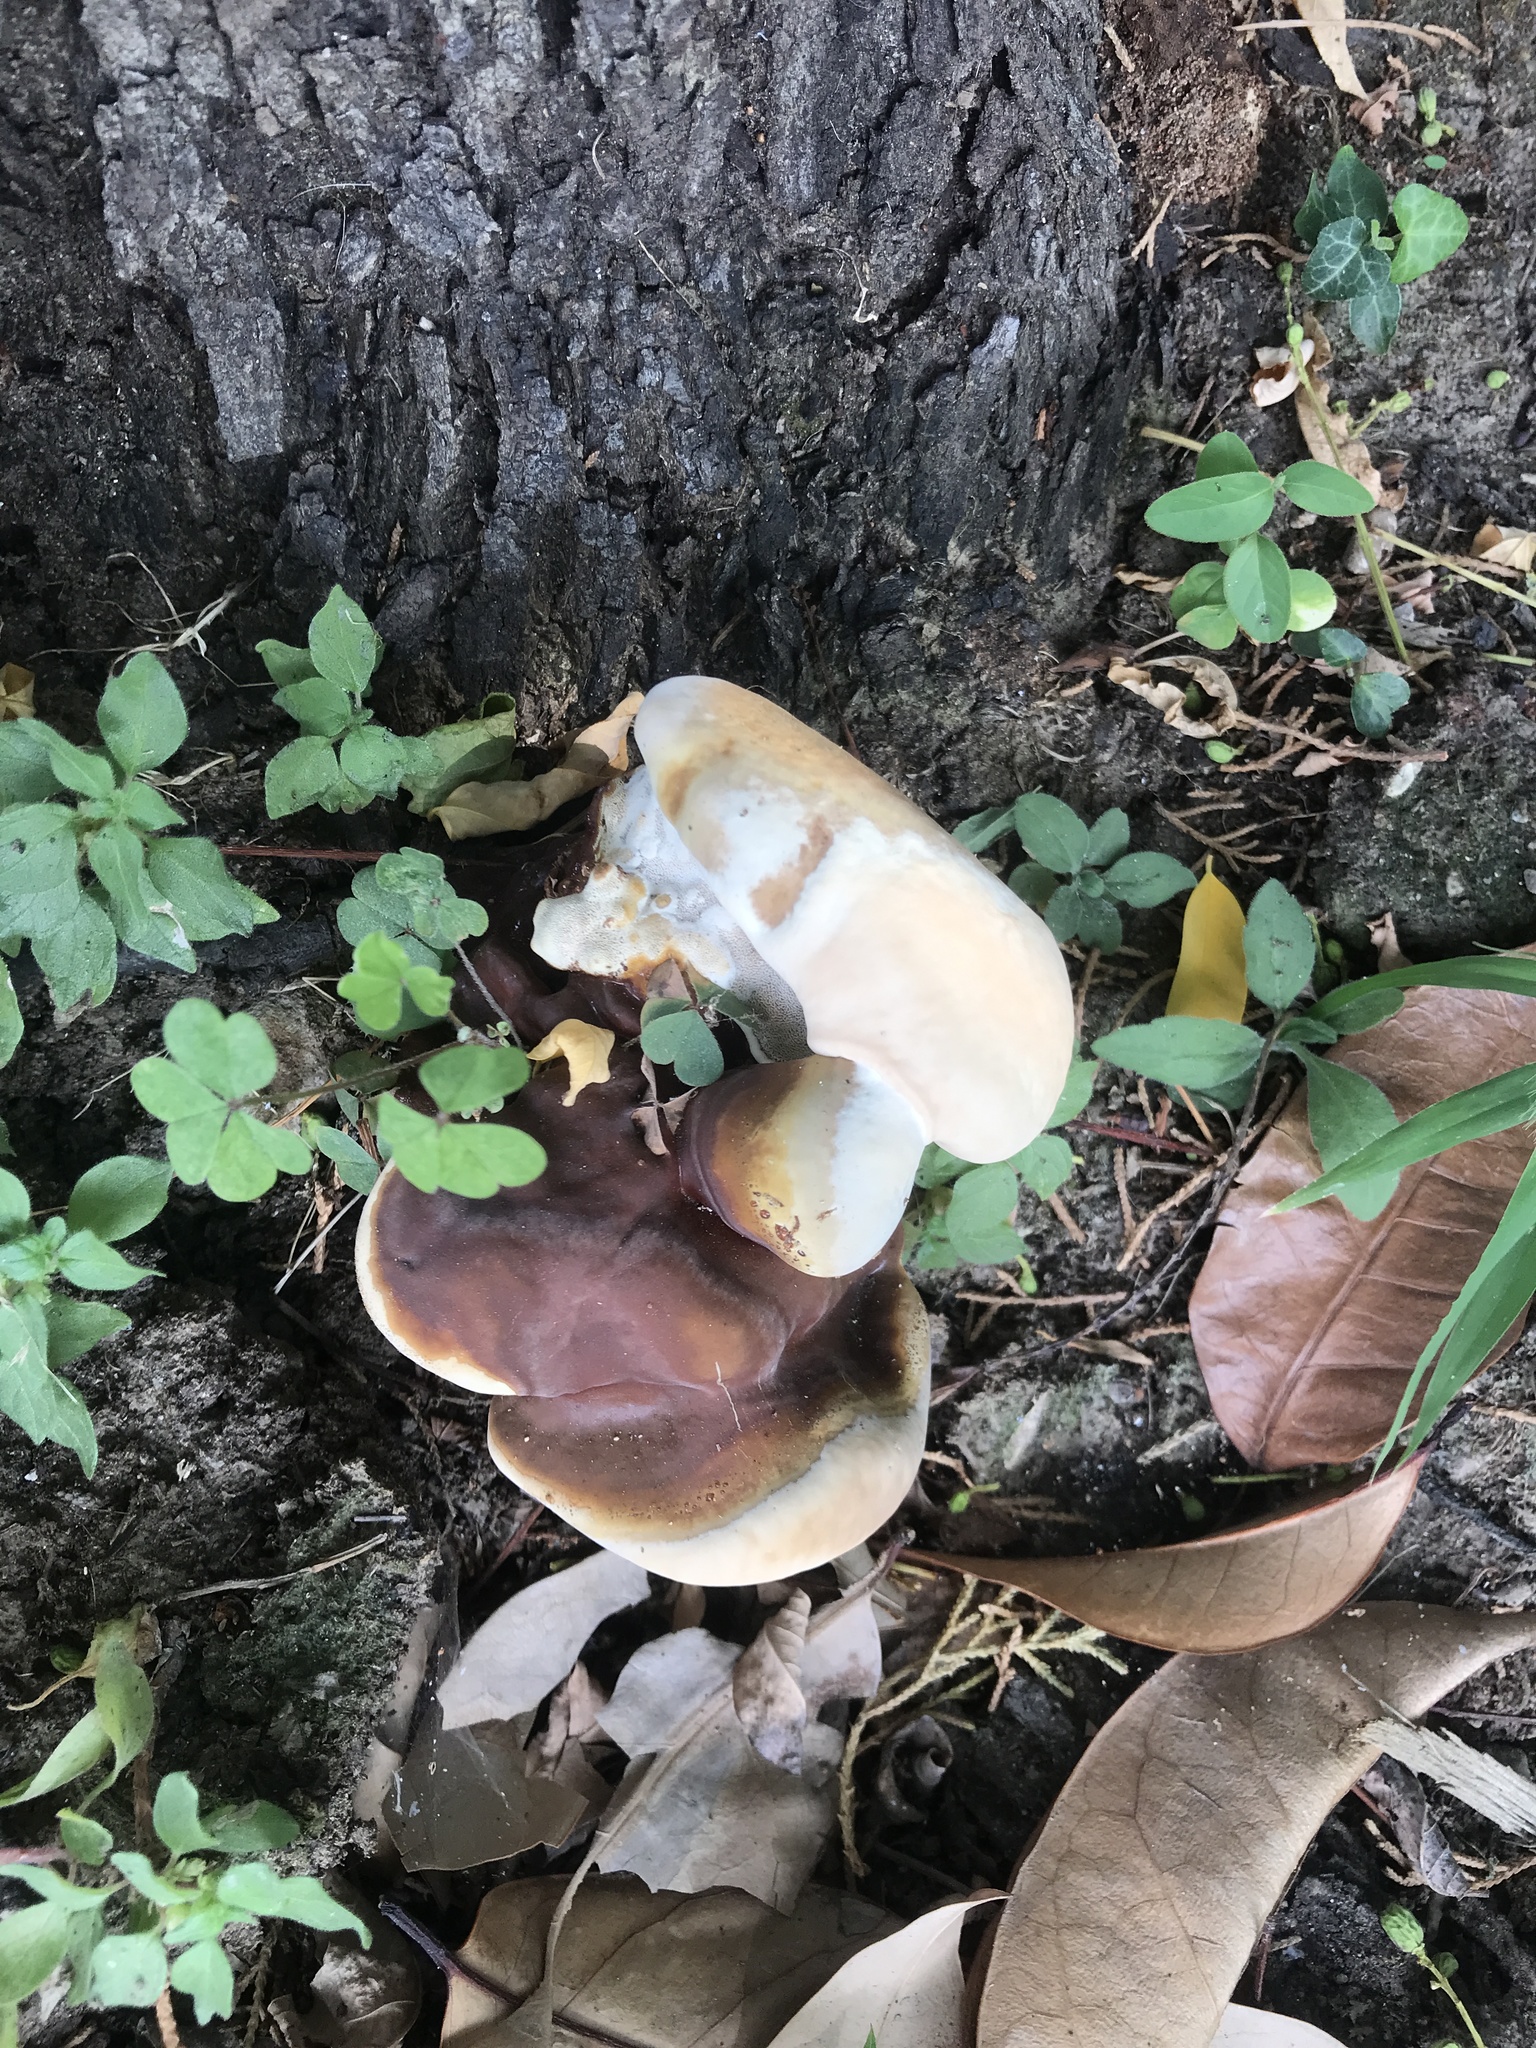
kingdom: Fungi
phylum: Basidiomycota
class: Agaricomycetes
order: Polyporales
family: Polyporaceae
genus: Ganoderma
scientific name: Ganoderma lucidum
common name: Lacquered bracket
